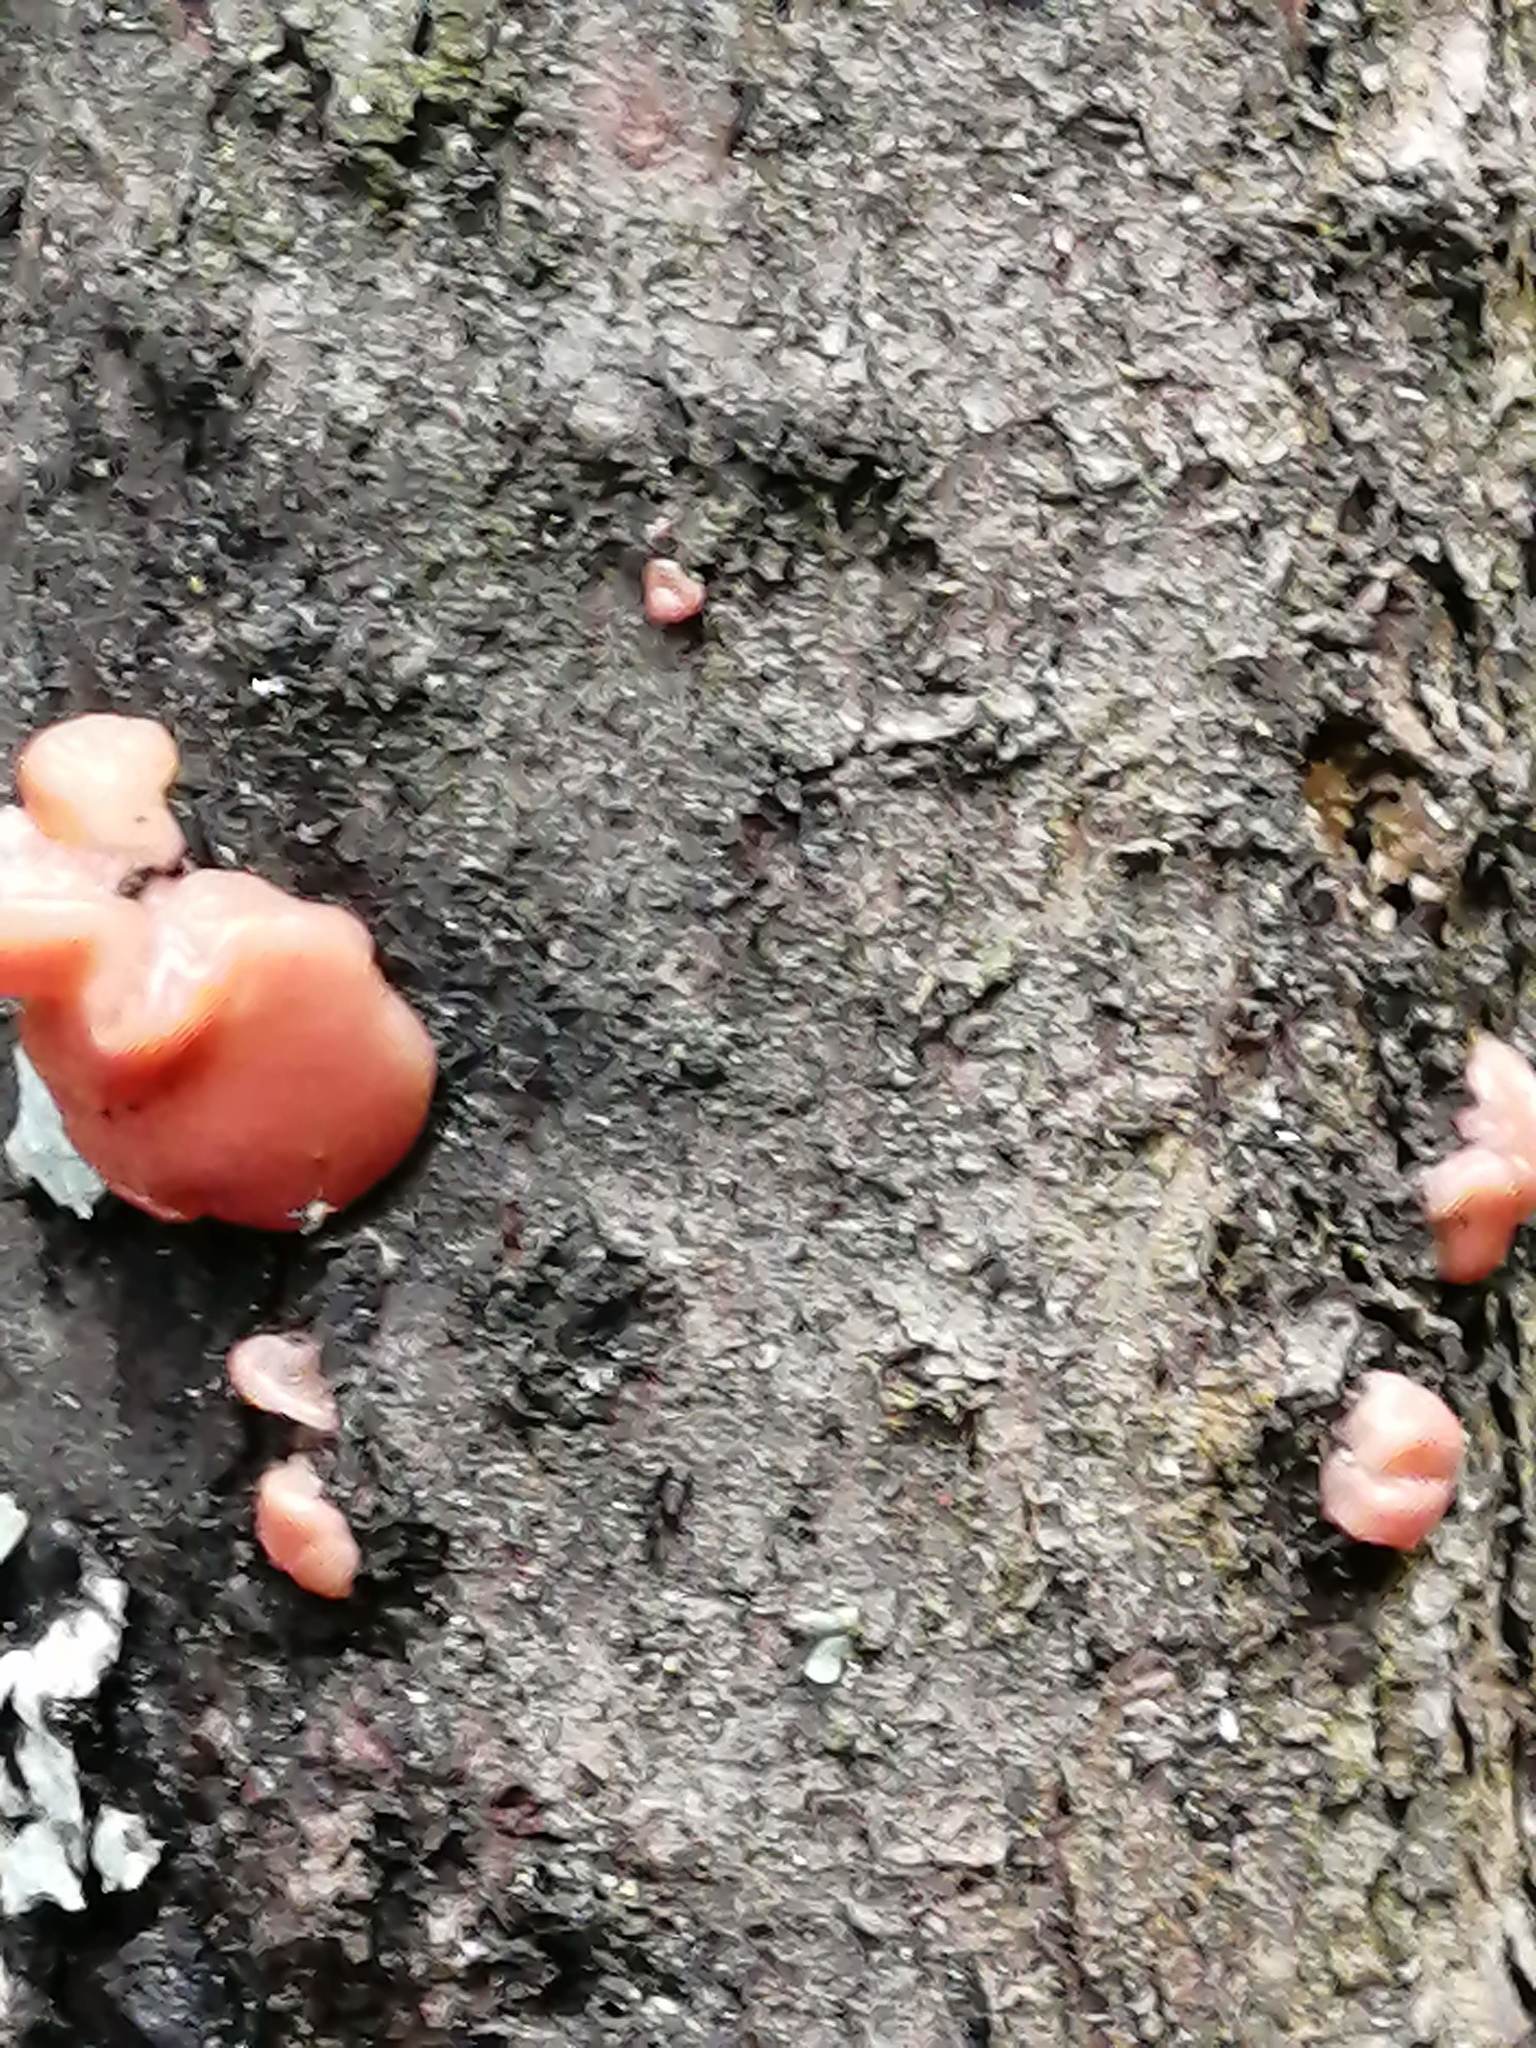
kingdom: Fungi
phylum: Basidiomycota
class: Agaricomycetes
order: Sebacinales
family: Sebacinaceae
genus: Ditangium
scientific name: Ditangium cerasi
